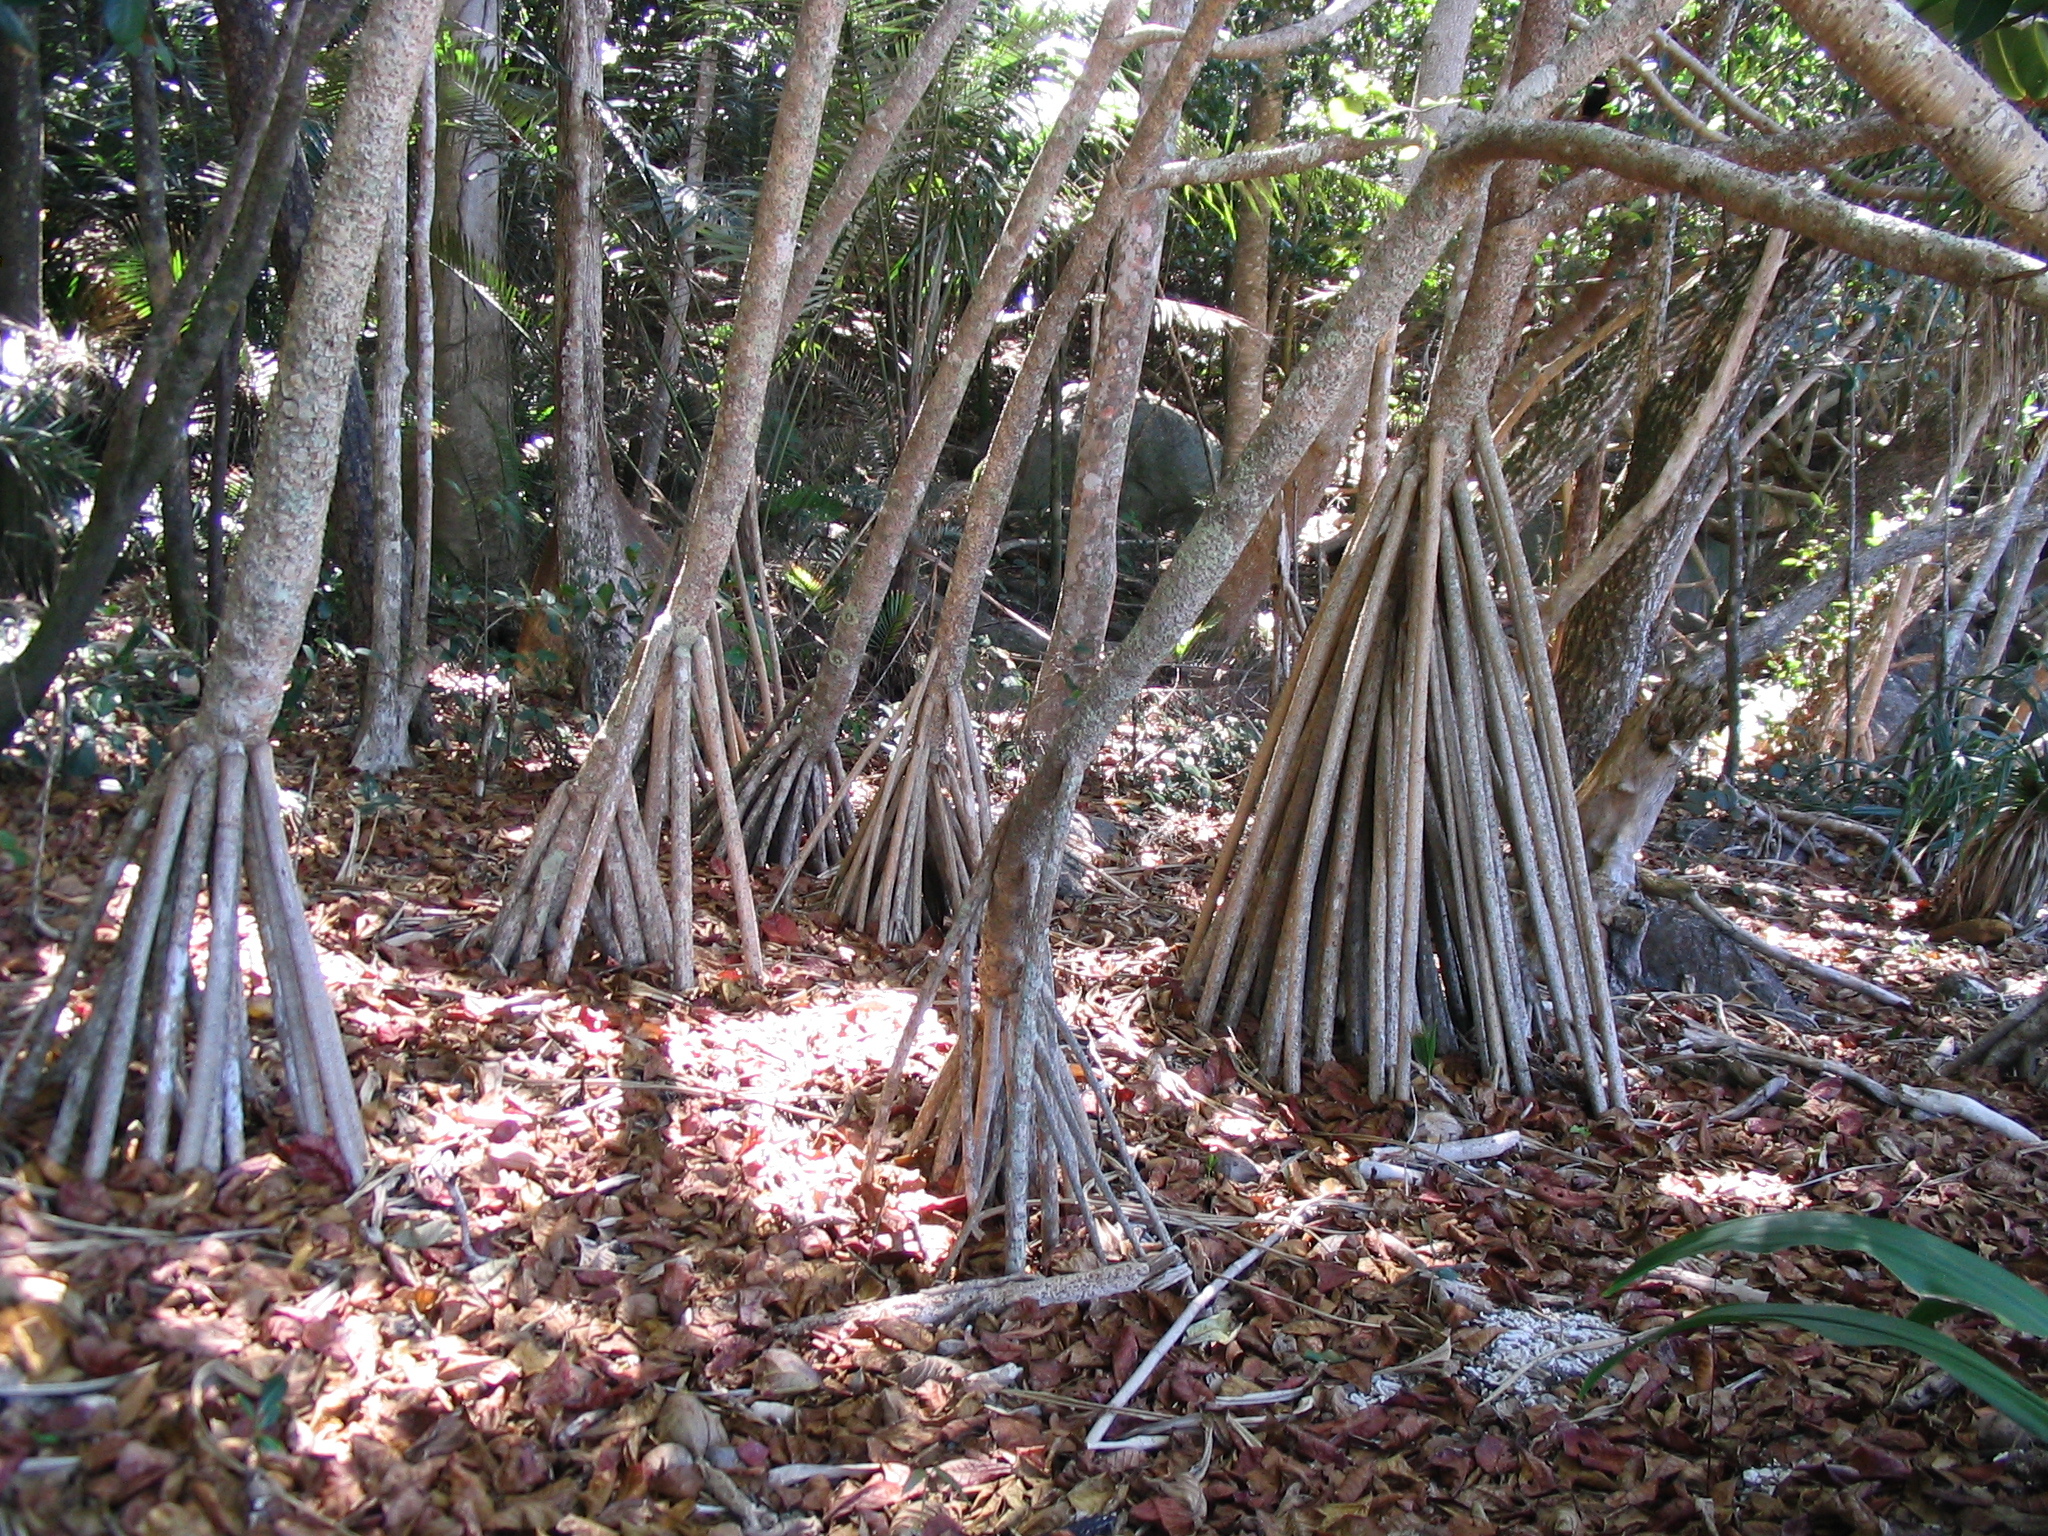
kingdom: Plantae
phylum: Tracheophyta
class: Liliopsida
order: Pandanales
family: Pandanaceae
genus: Pandanus
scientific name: Pandanus tectorius
